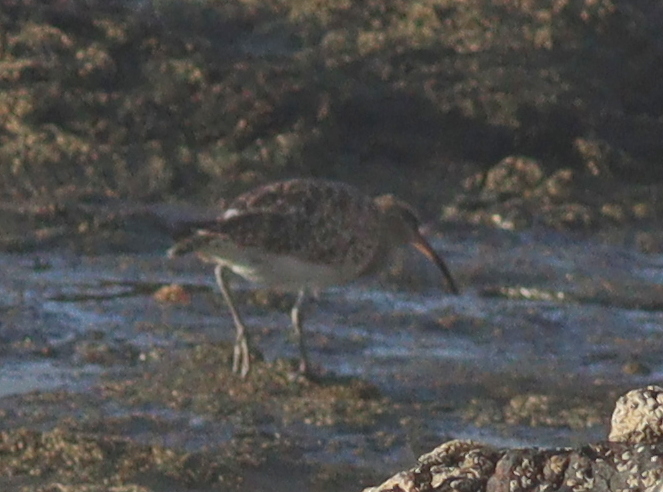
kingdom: Animalia
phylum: Chordata
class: Aves
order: Charadriiformes
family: Scolopacidae
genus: Numenius
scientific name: Numenius phaeopus
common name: Whimbrel
